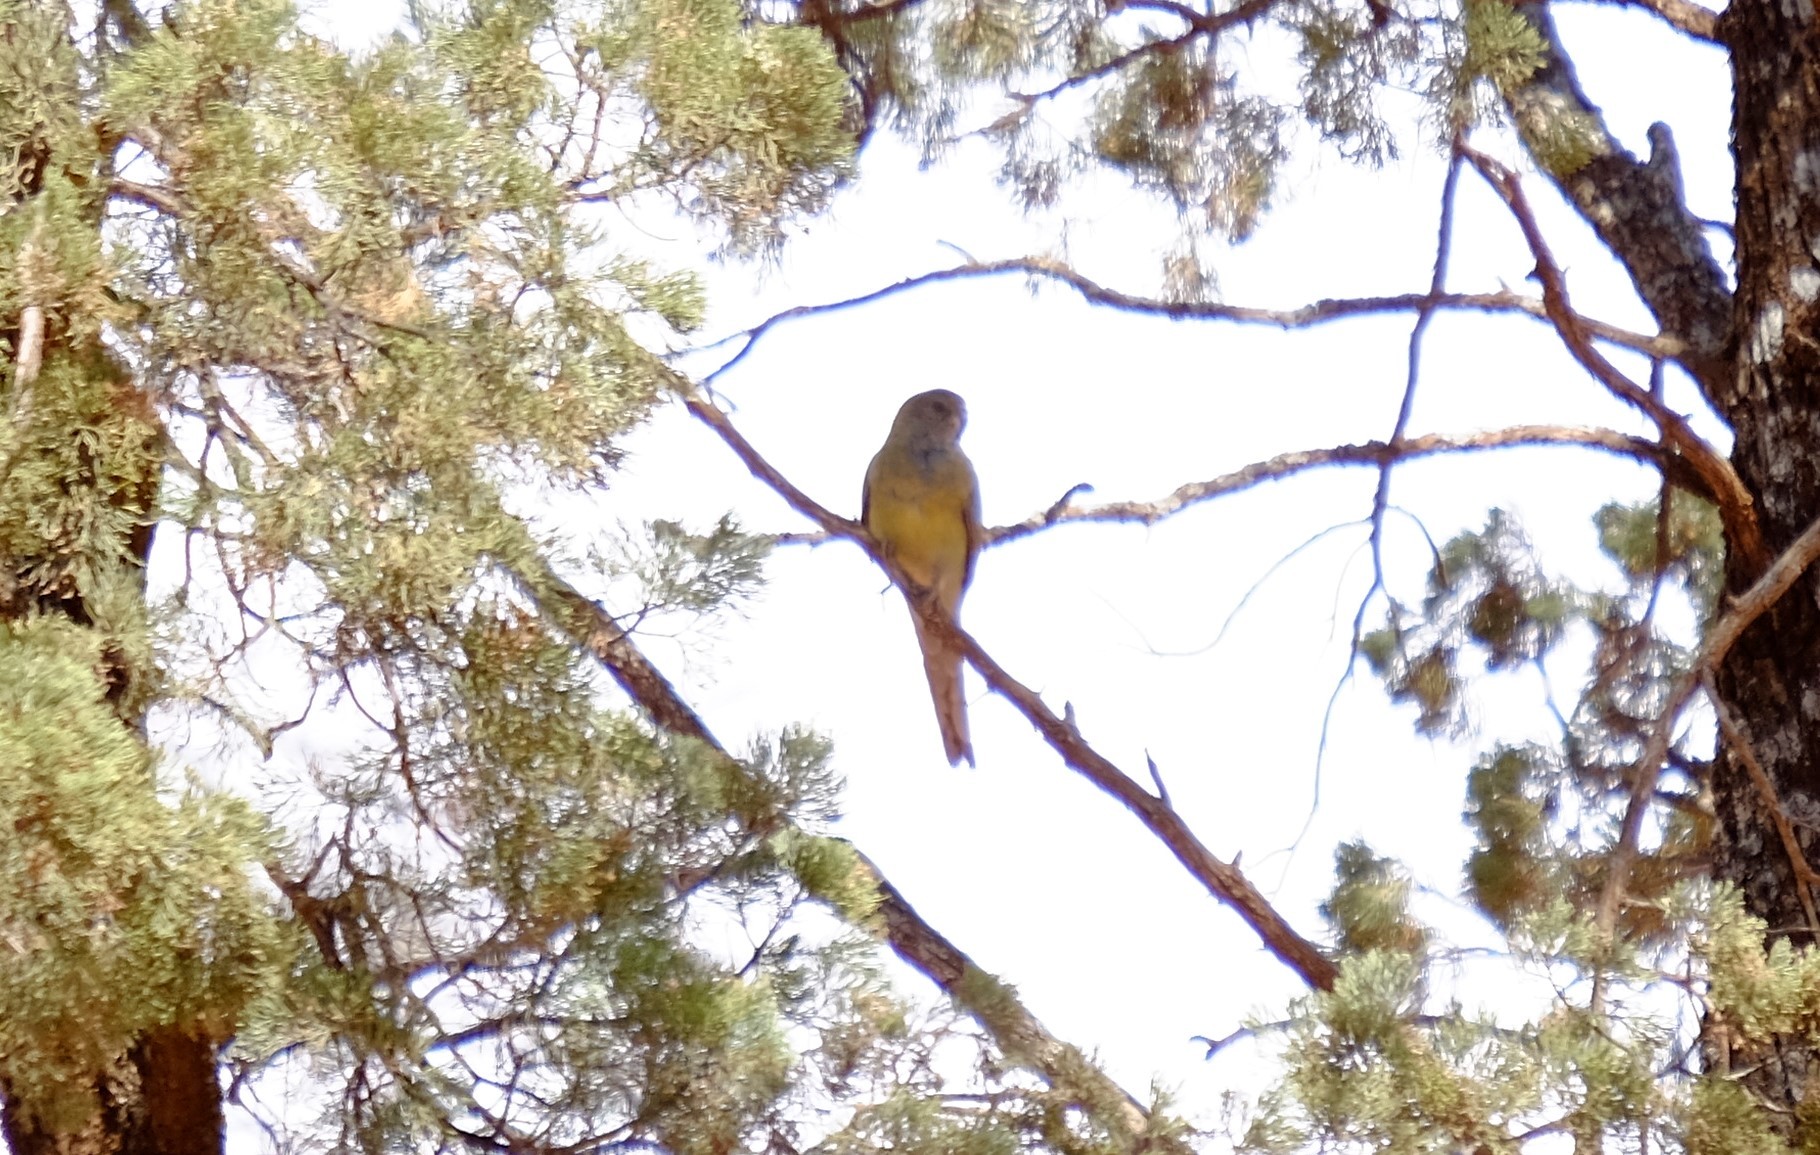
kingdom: Animalia
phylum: Chordata
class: Aves
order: Psittaciformes
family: Psittacidae
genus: Psephotus
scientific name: Psephotus haematonotus
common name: Red-rumped parrot
